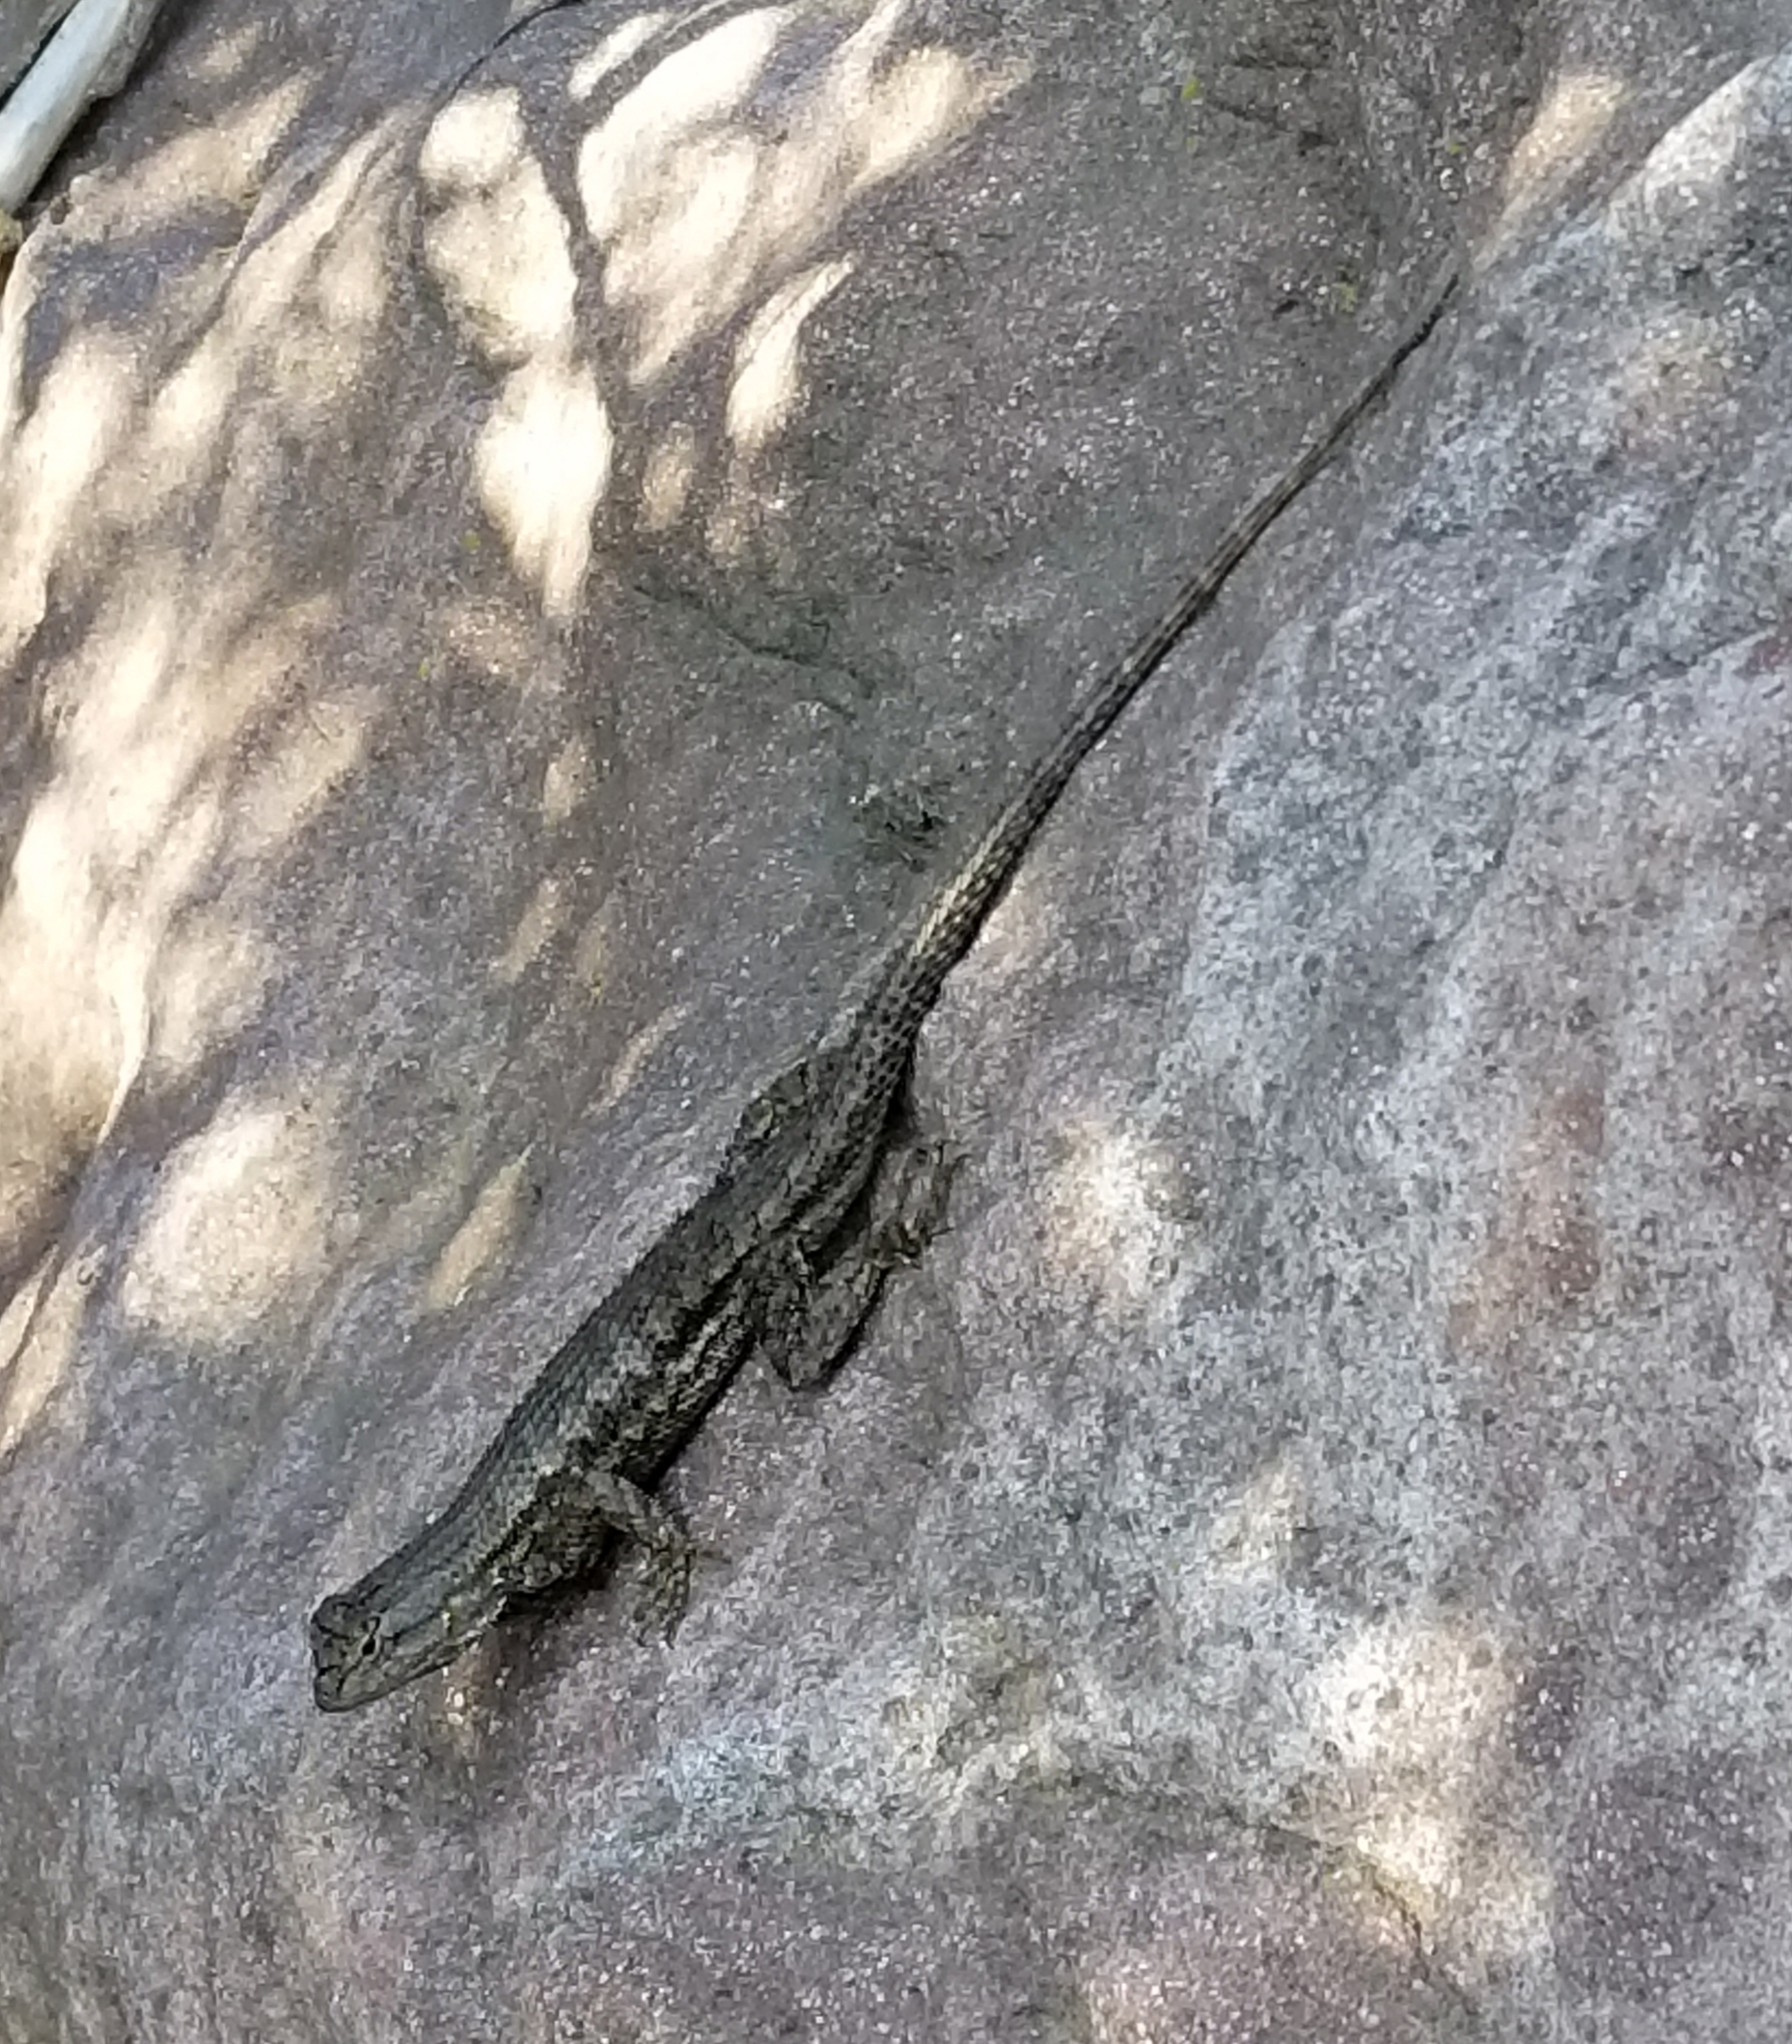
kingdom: Animalia
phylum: Chordata
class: Squamata
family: Phrynosomatidae
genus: Sceloporus
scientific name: Sceloporus occidentalis
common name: Western fence lizard
